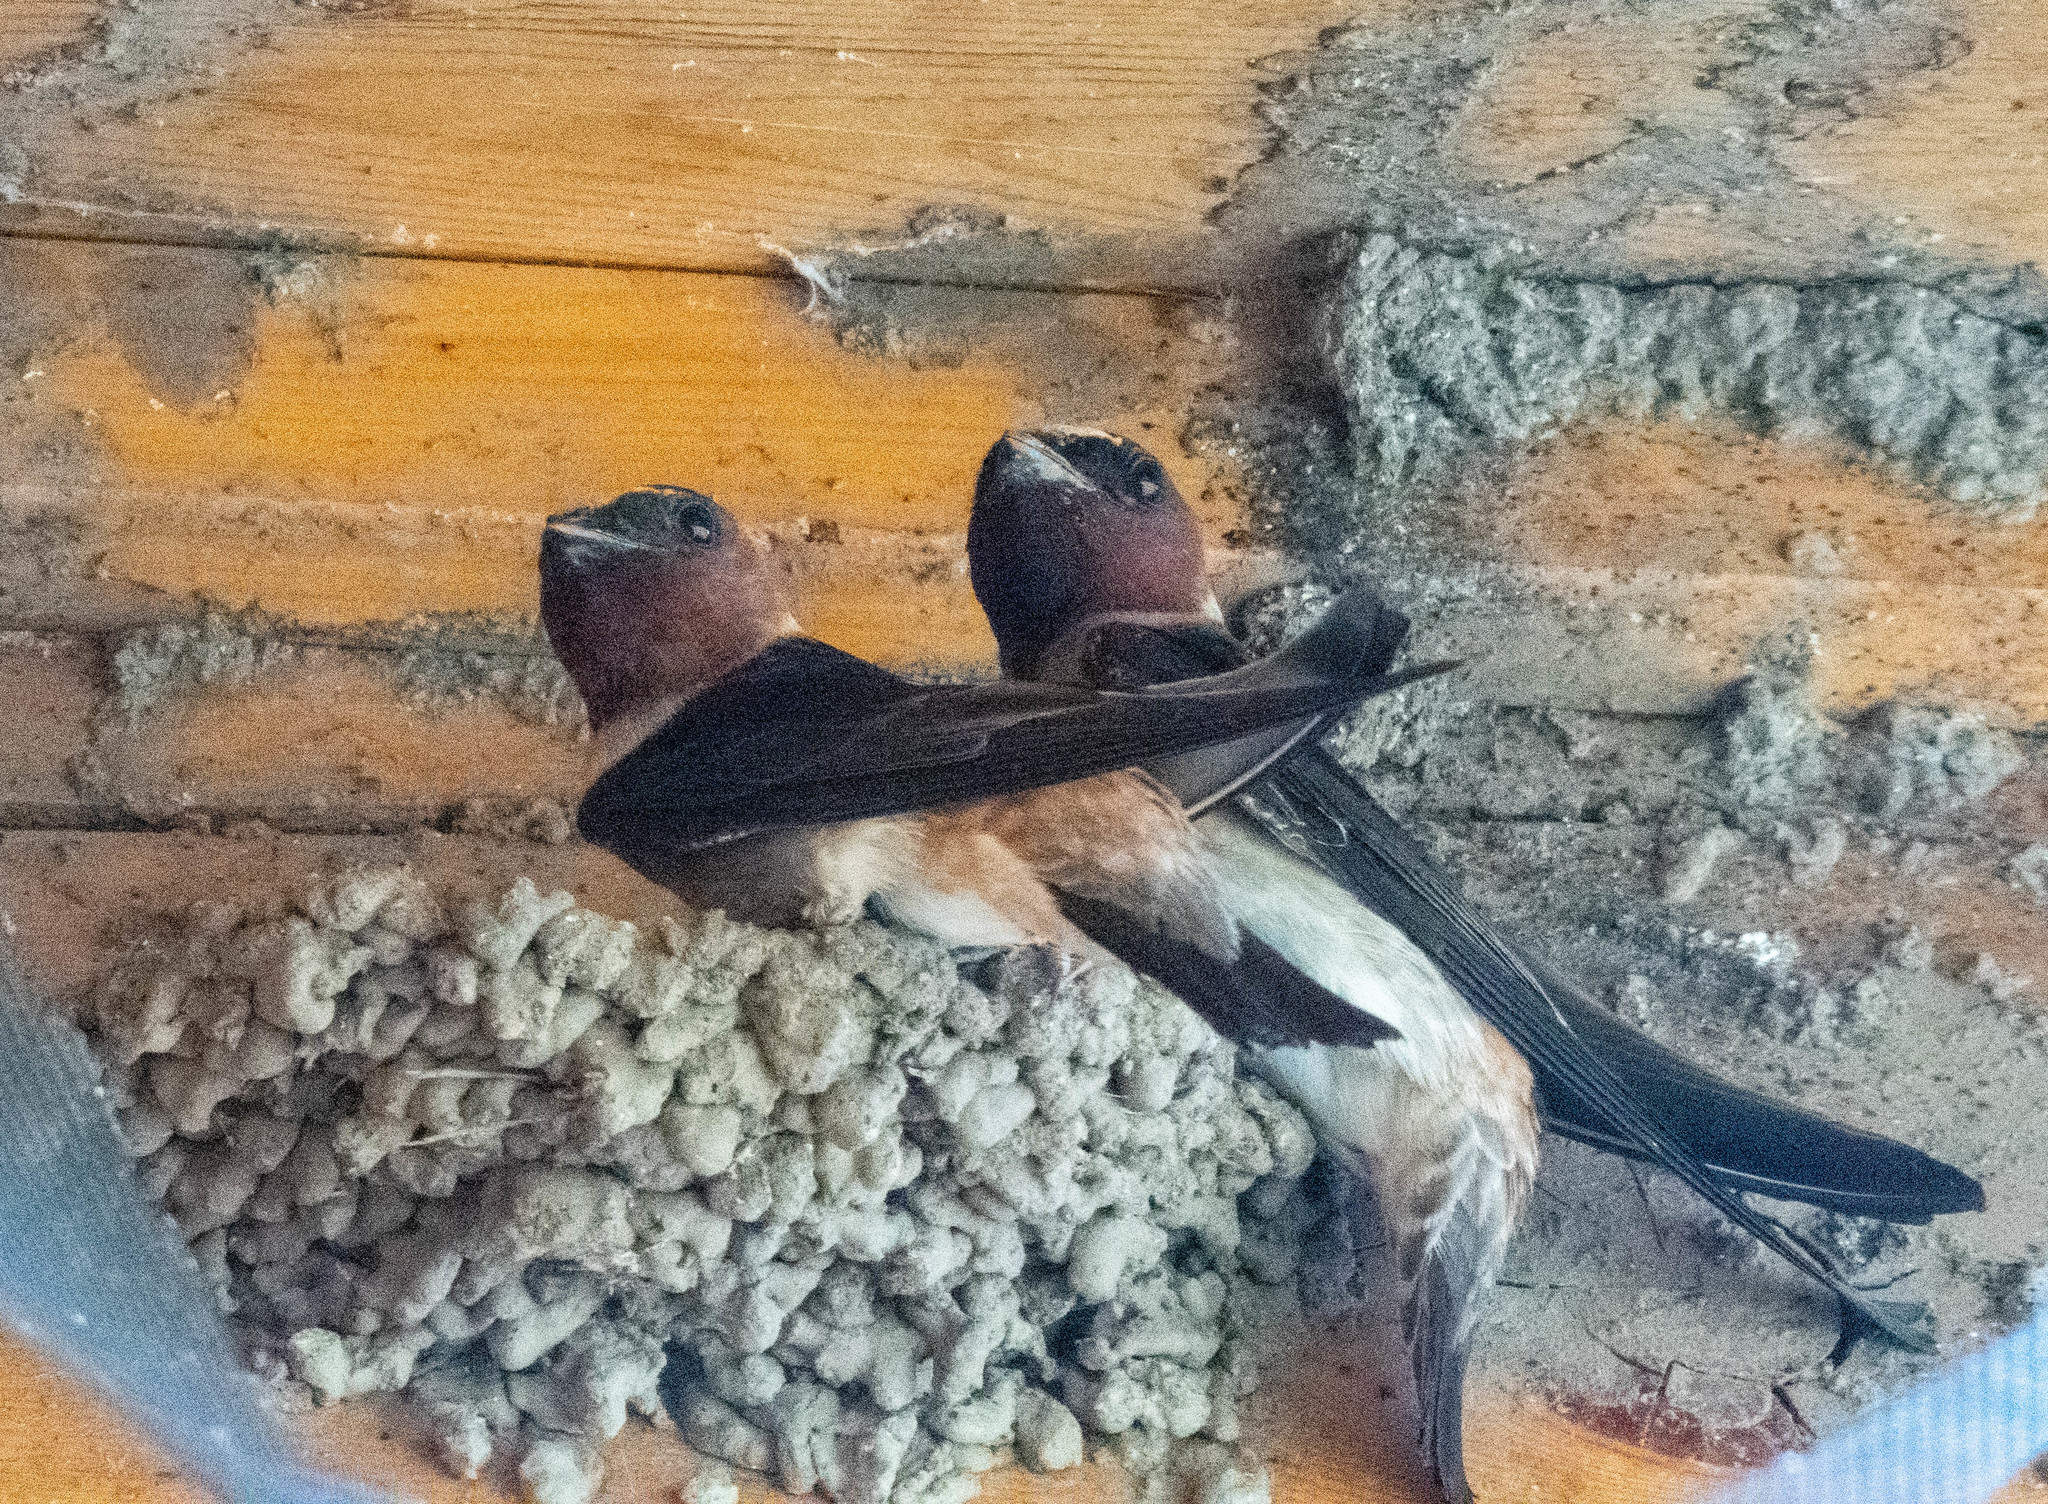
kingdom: Animalia
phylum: Chordata
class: Aves
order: Passeriformes
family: Hirundinidae
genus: Petrochelidon
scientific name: Petrochelidon pyrrhonota
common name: American cliff swallow
